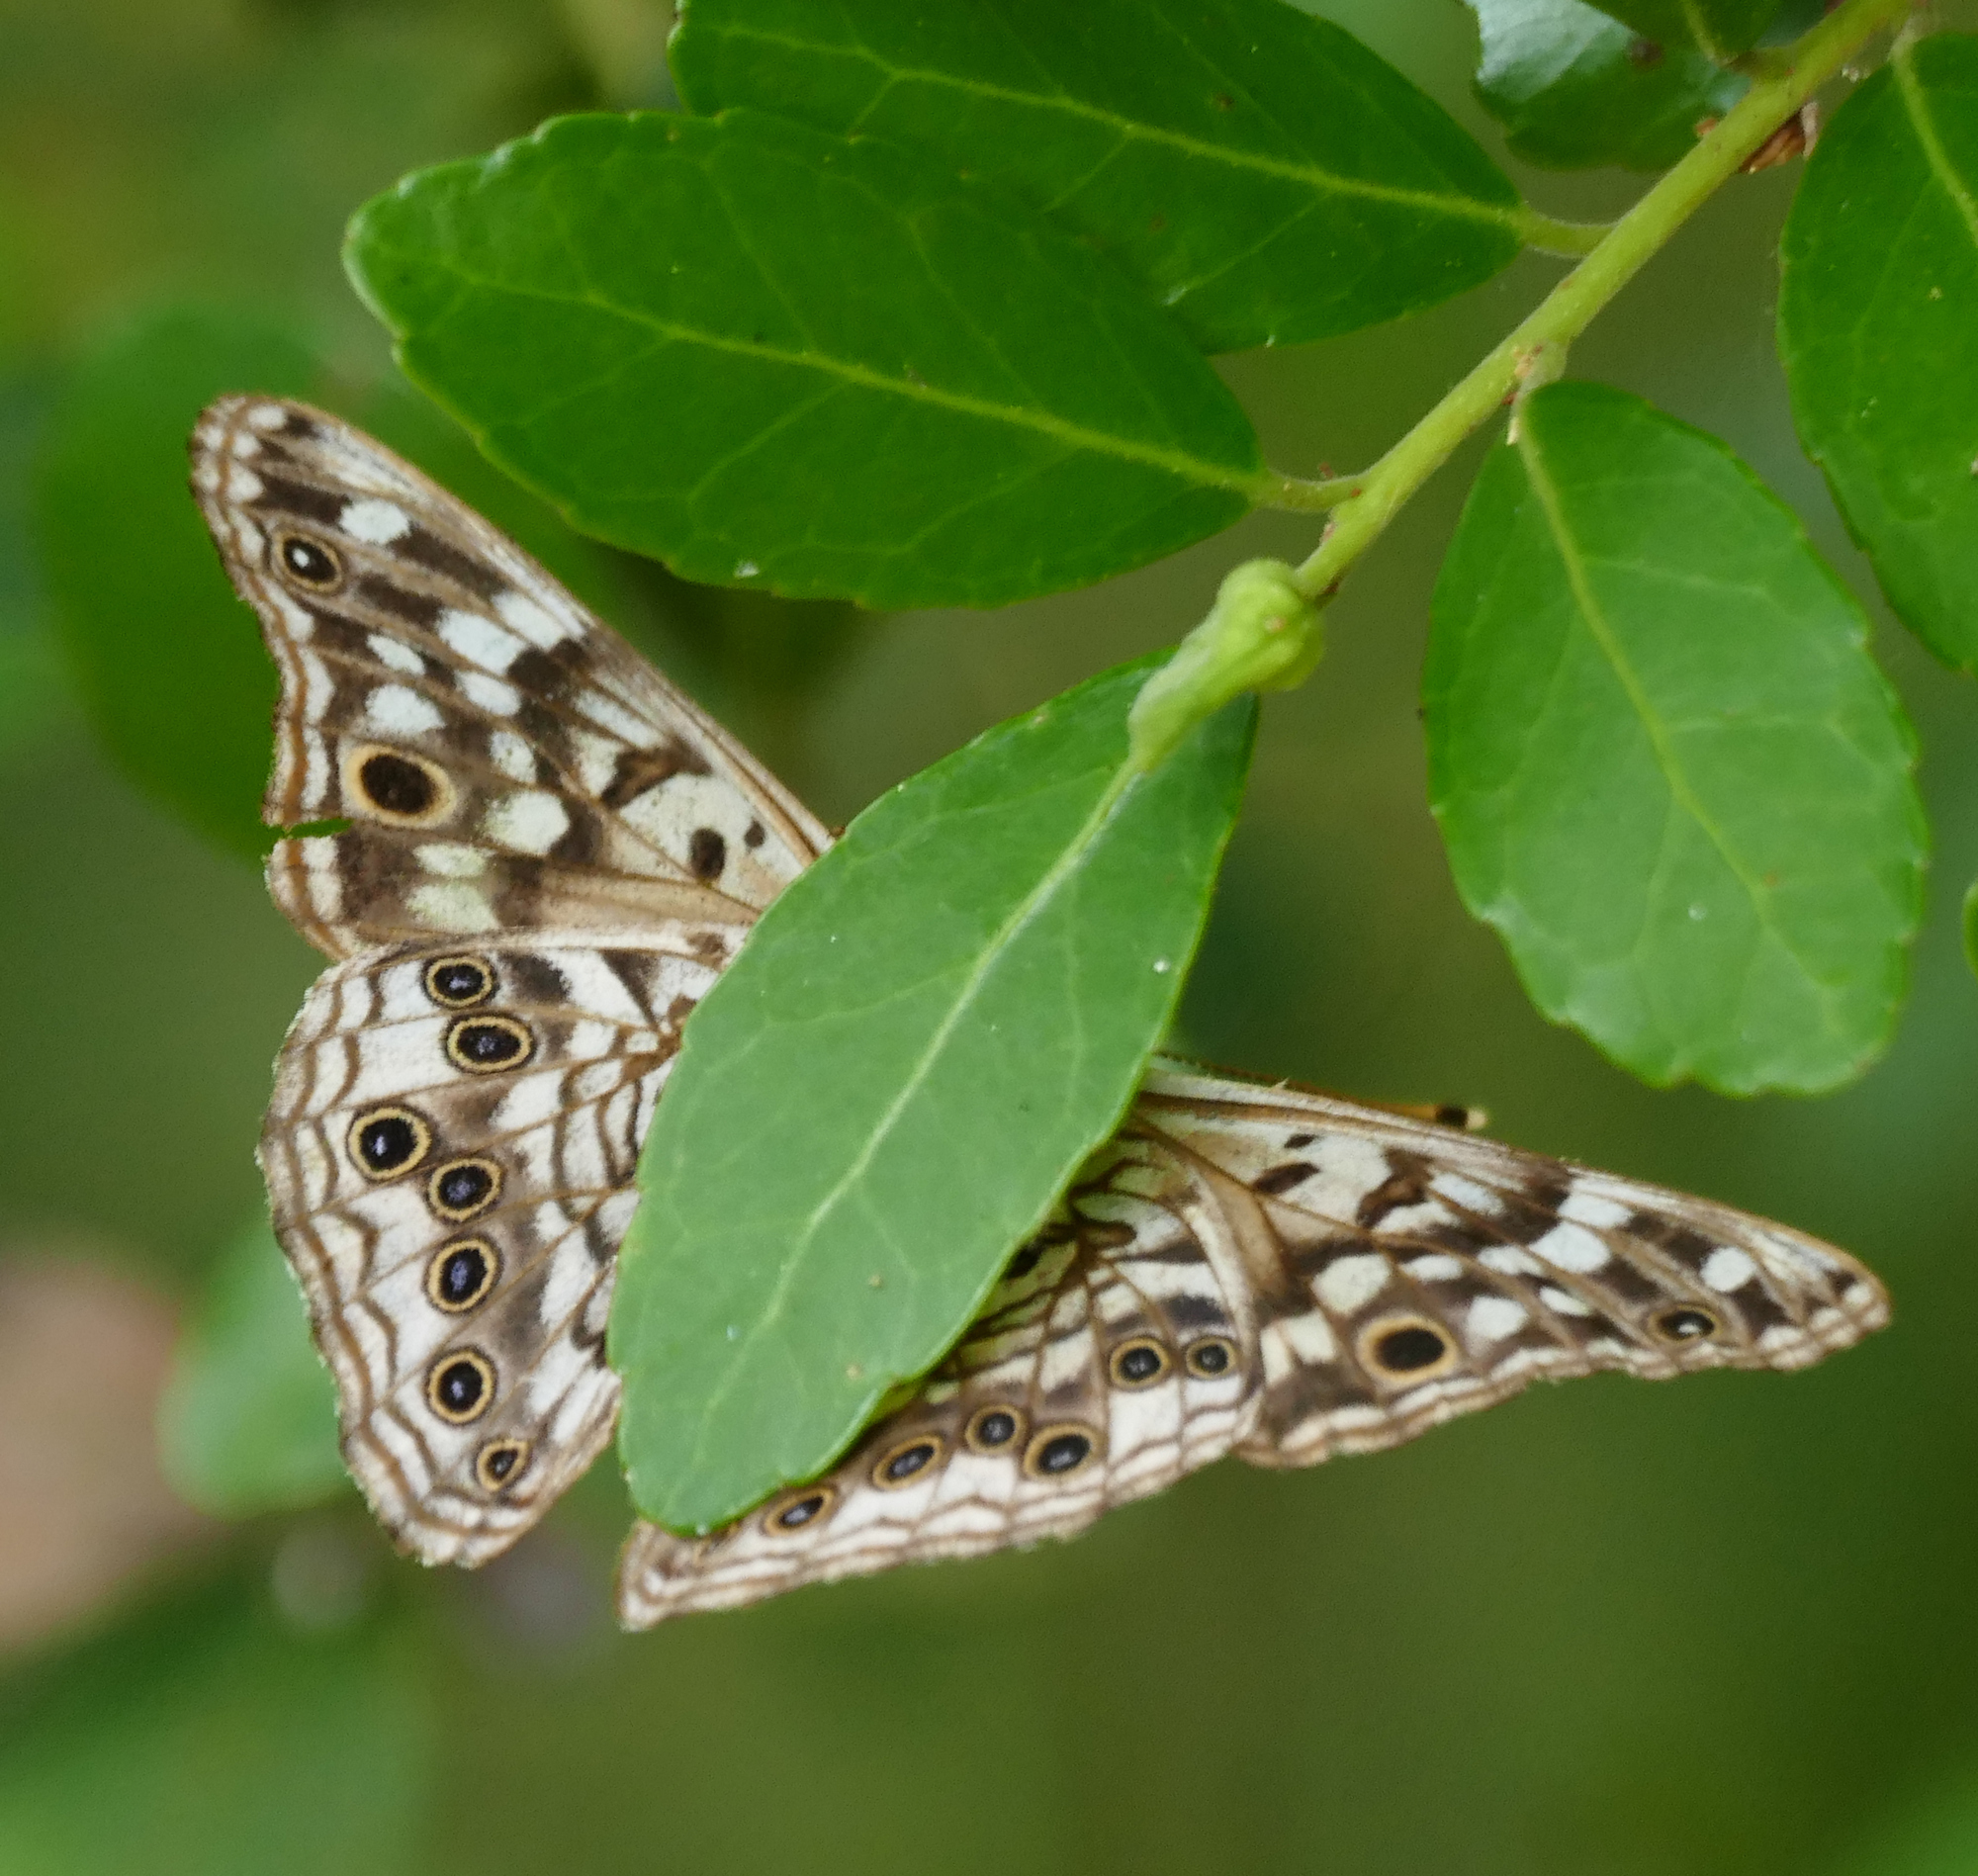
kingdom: Animalia
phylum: Arthropoda
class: Insecta
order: Lepidoptera
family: Nymphalidae
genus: Asterocampa
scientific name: Asterocampa celtis
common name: Hackberry emperor
